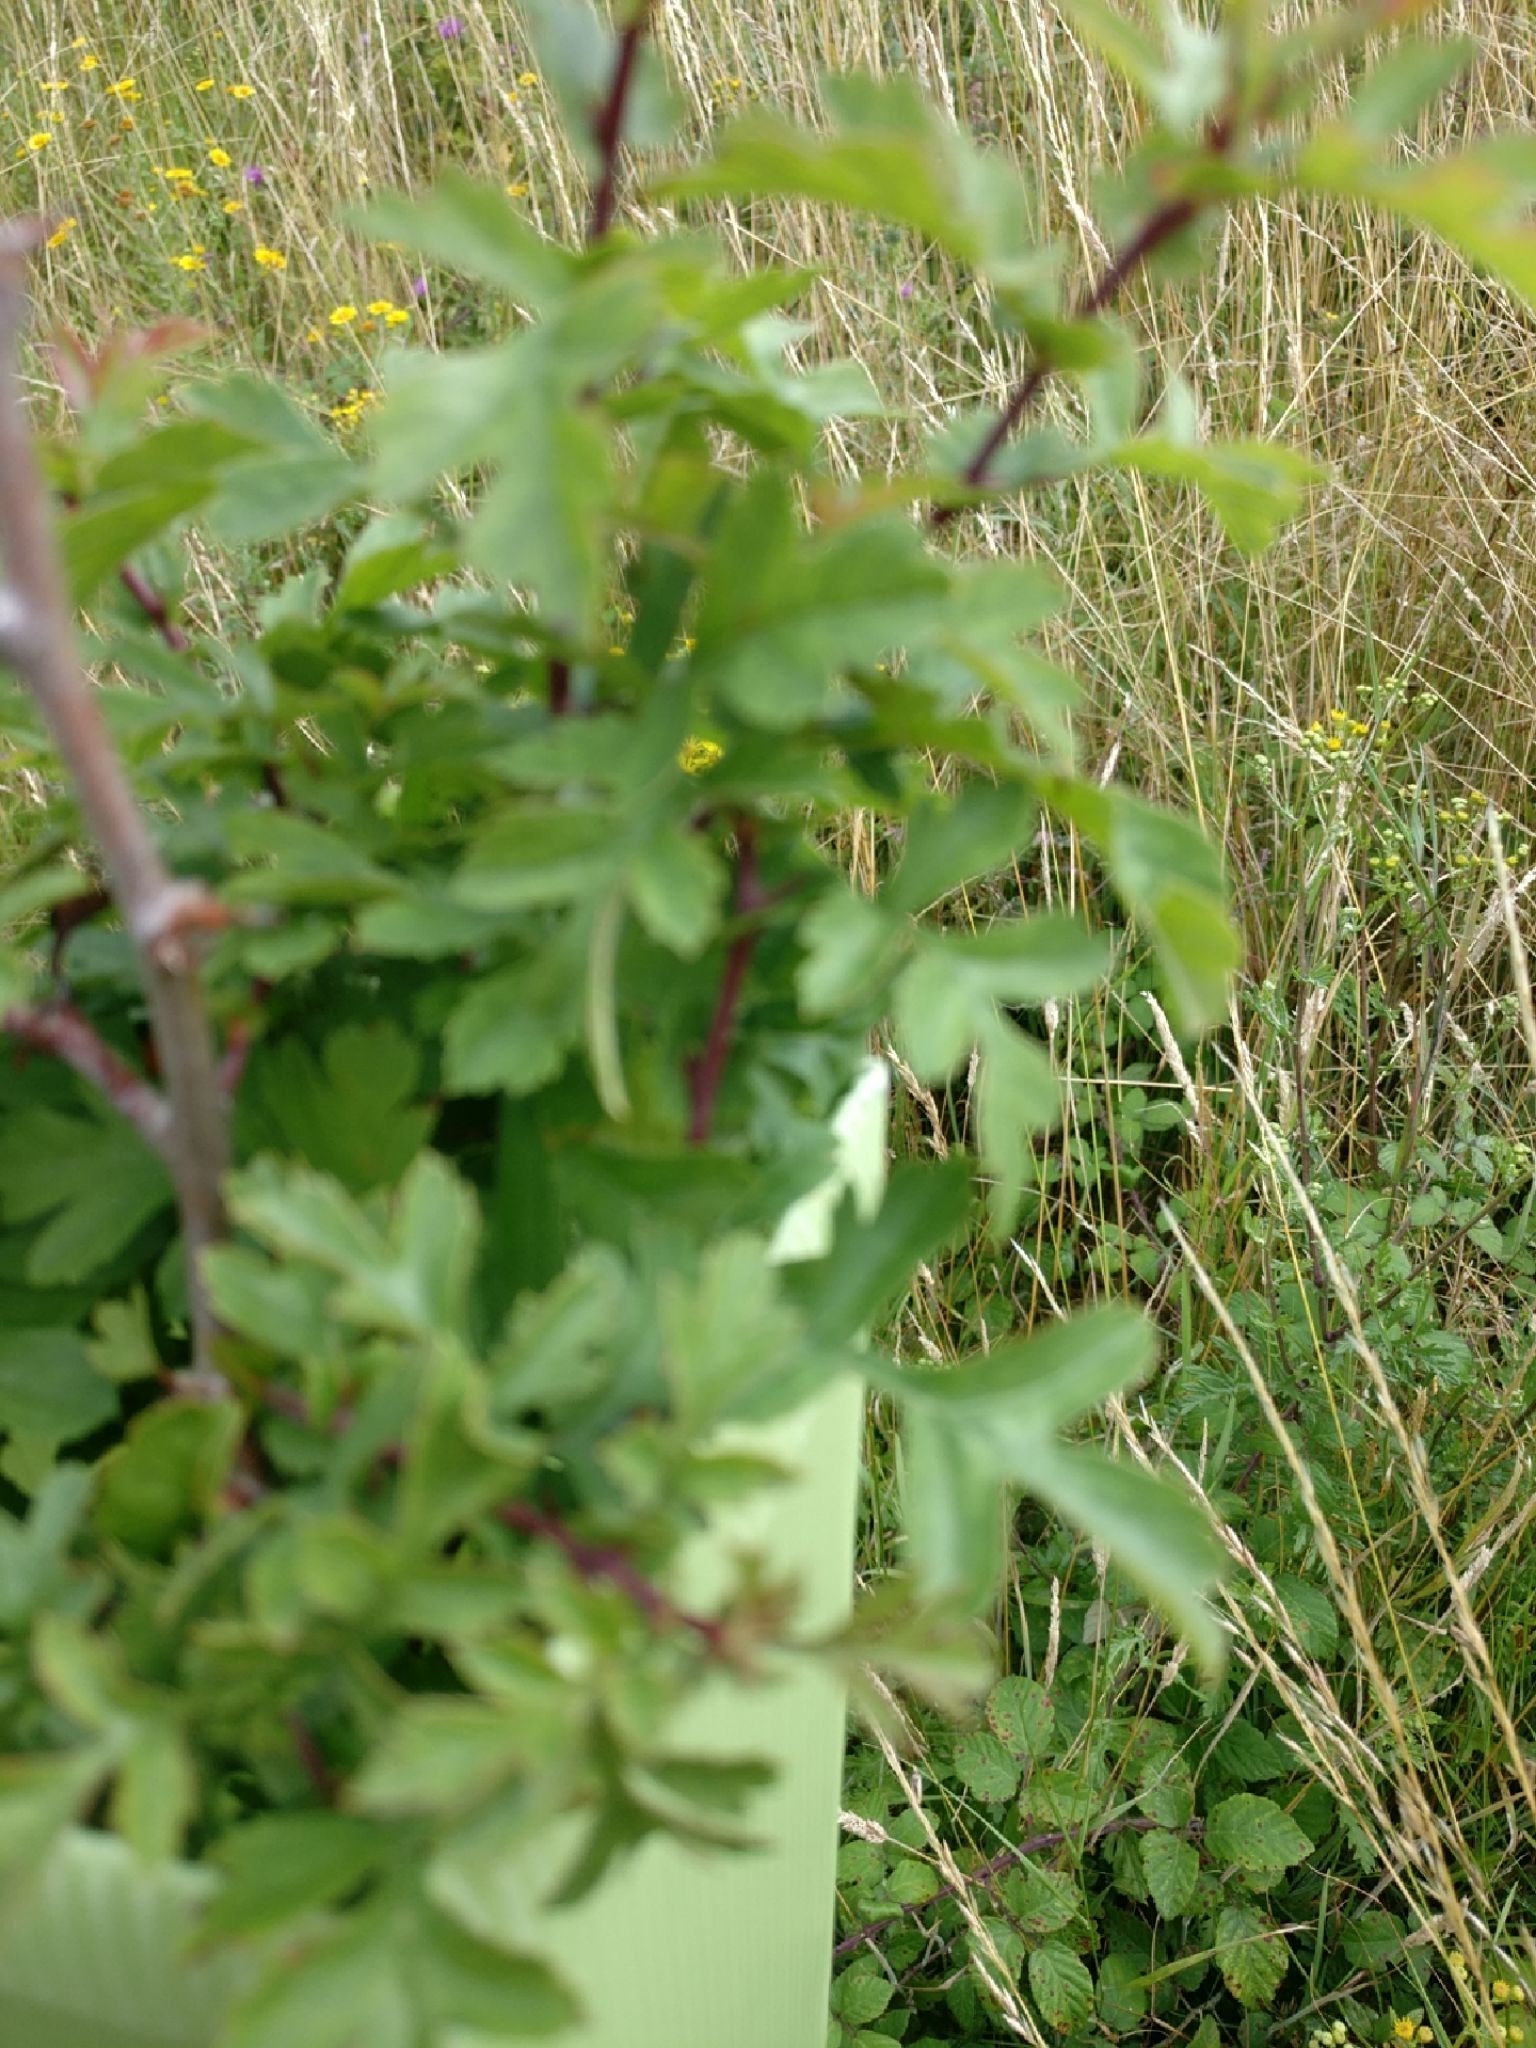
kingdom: Plantae
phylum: Tracheophyta
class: Magnoliopsida
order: Rosales
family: Rosaceae
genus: Crataegus
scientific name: Crataegus monogyna
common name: Hawthorn
